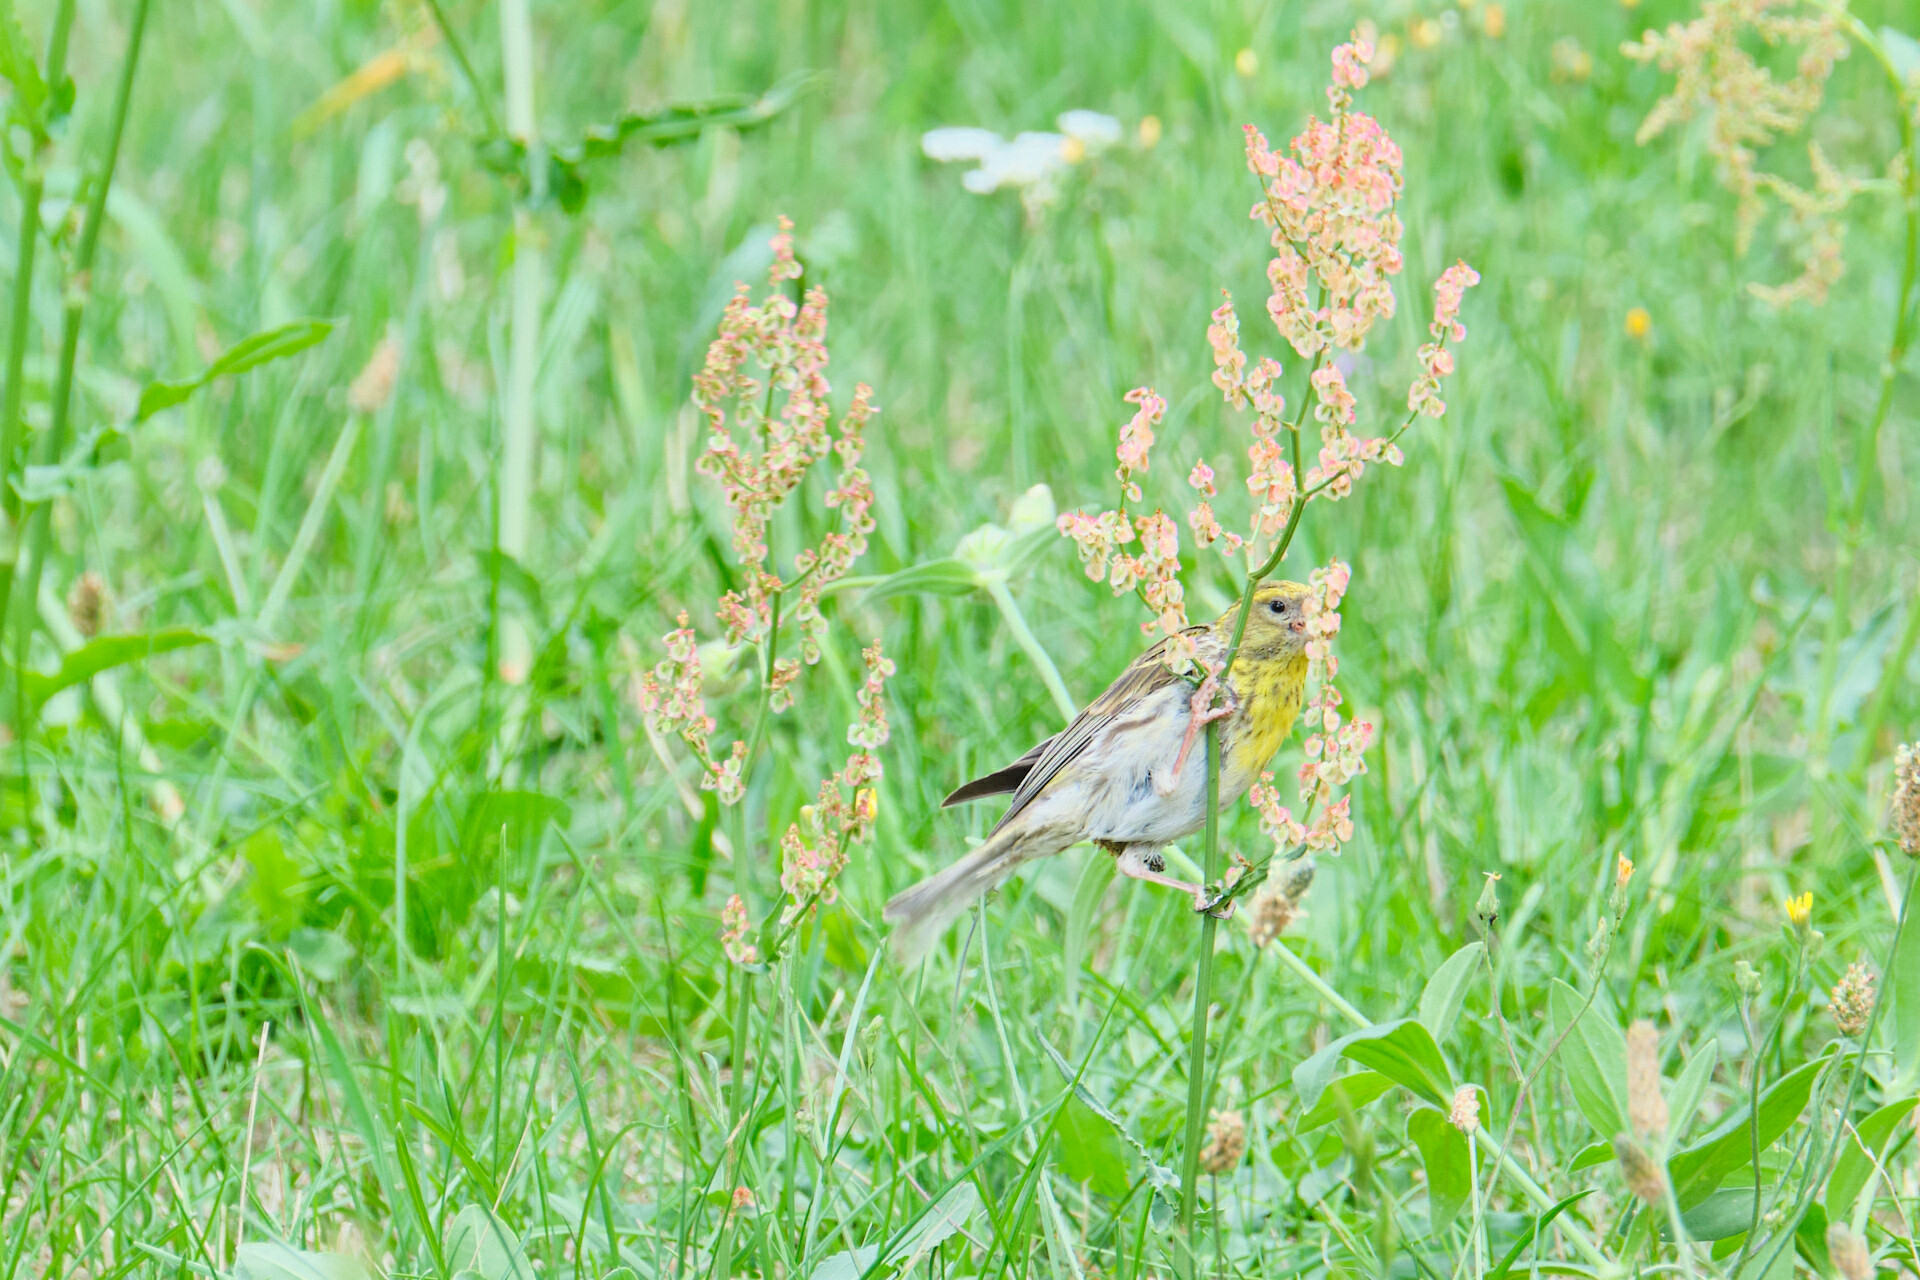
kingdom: Animalia
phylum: Chordata
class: Aves
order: Passeriformes
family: Fringillidae
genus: Serinus
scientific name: Serinus serinus
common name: European serin
